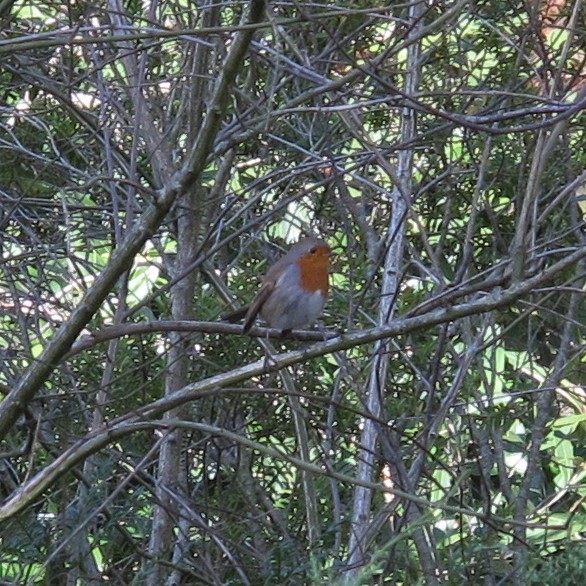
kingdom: Animalia
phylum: Chordata
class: Aves
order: Passeriformes
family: Muscicapidae
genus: Erithacus
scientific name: Erithacus rubecula
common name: European robin
